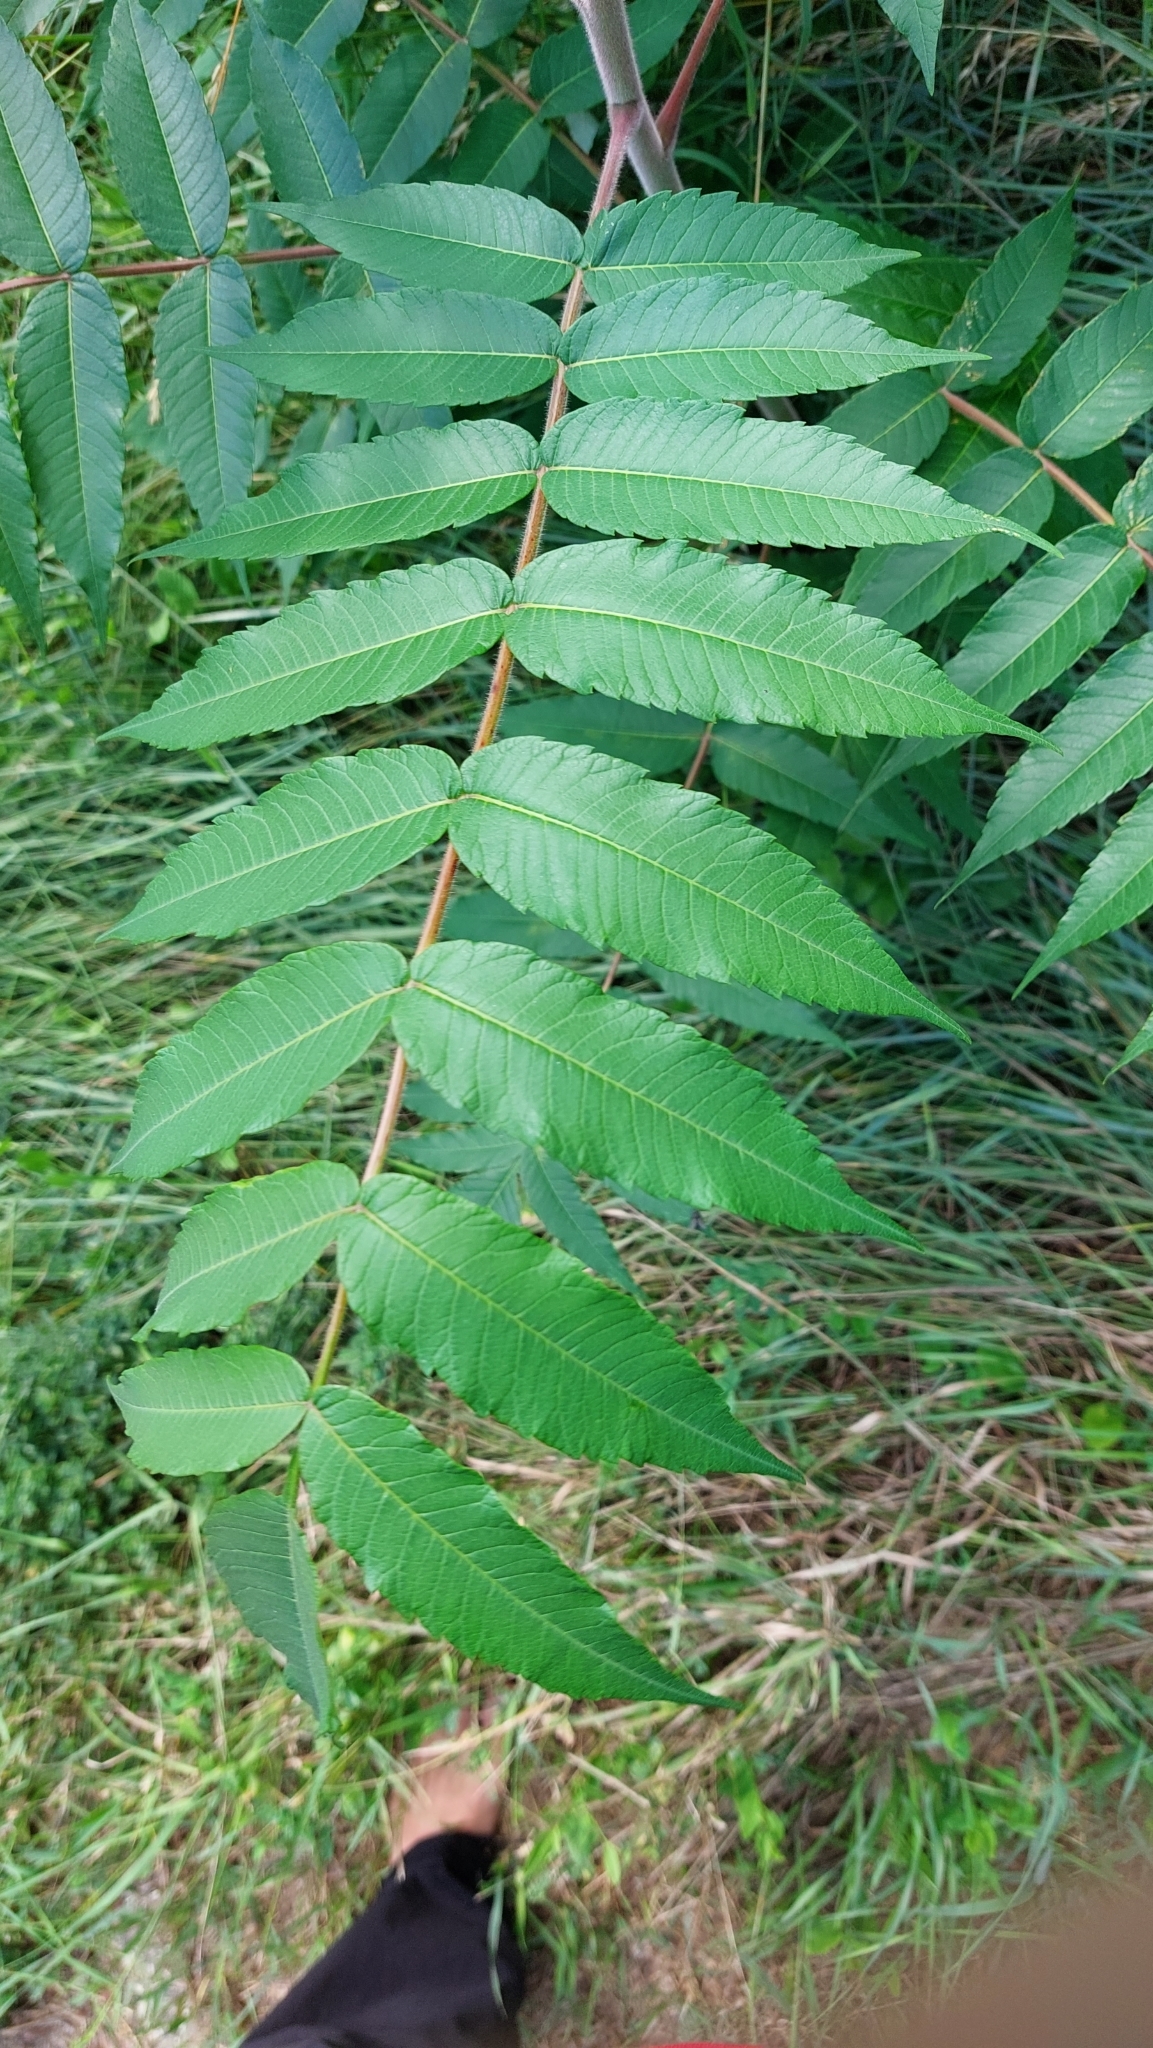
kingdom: Plantae
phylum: Tracheophyta
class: Magnoliopsida
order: Sapindales
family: Anacardiaceae
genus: Rhus
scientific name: Rhus typhina
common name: Staghorn sumac
